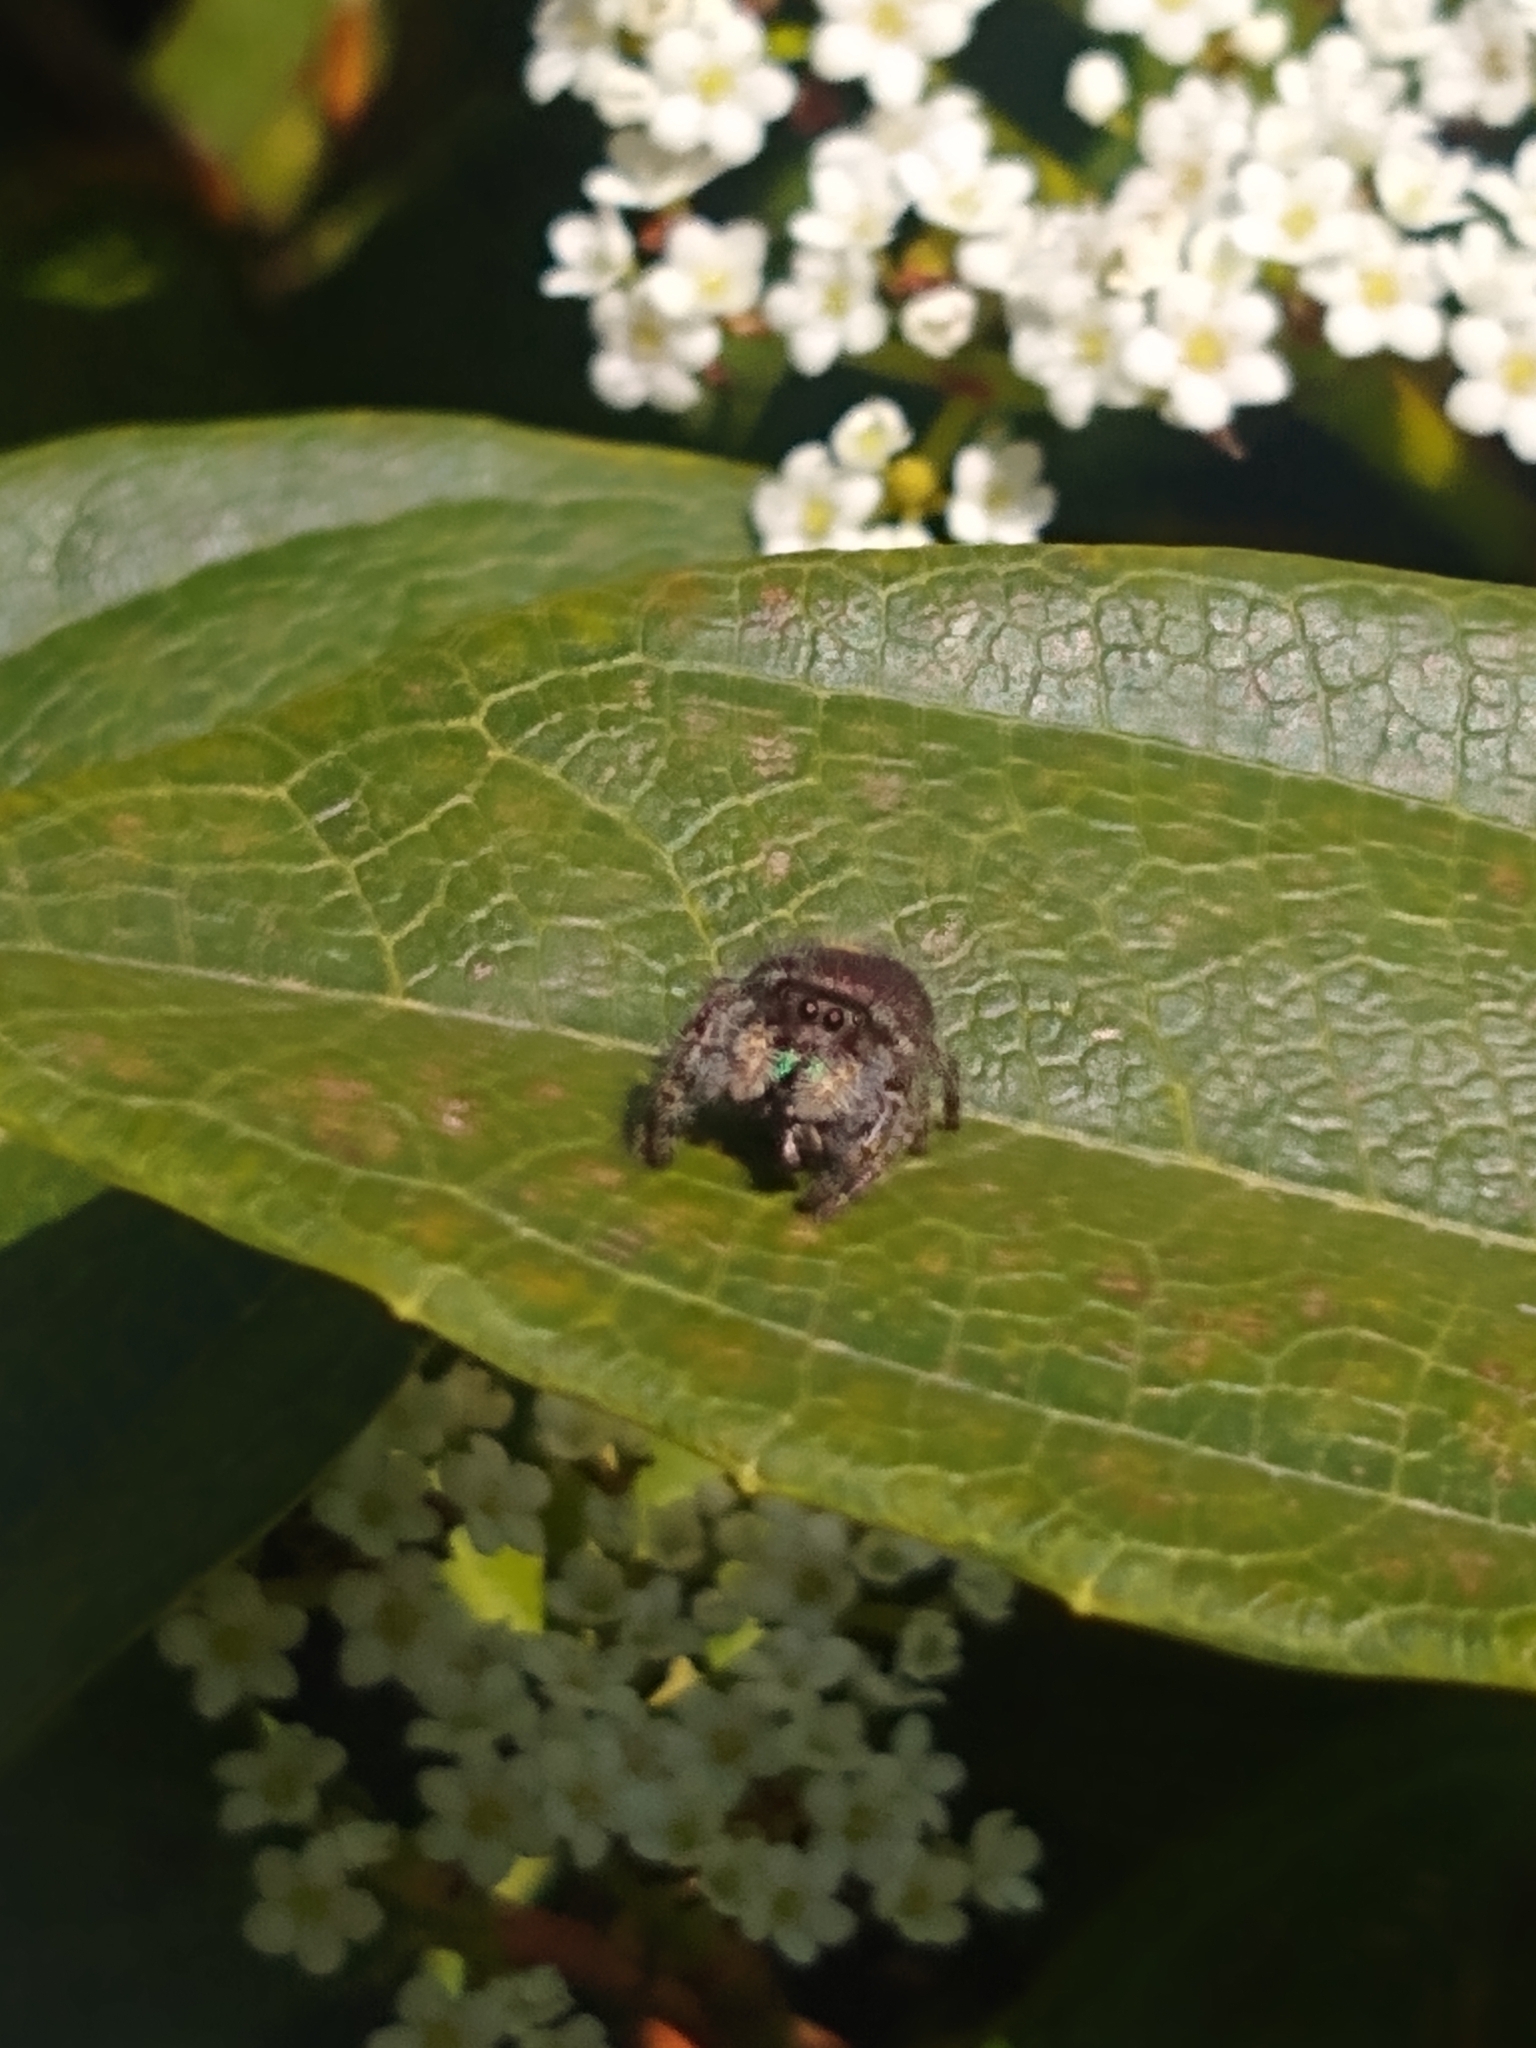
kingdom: Animalia
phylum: Arthropoda
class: Arachnida
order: Araneae
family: Salticidae
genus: Phidippus
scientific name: Phidippus audax
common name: Bold jumper
